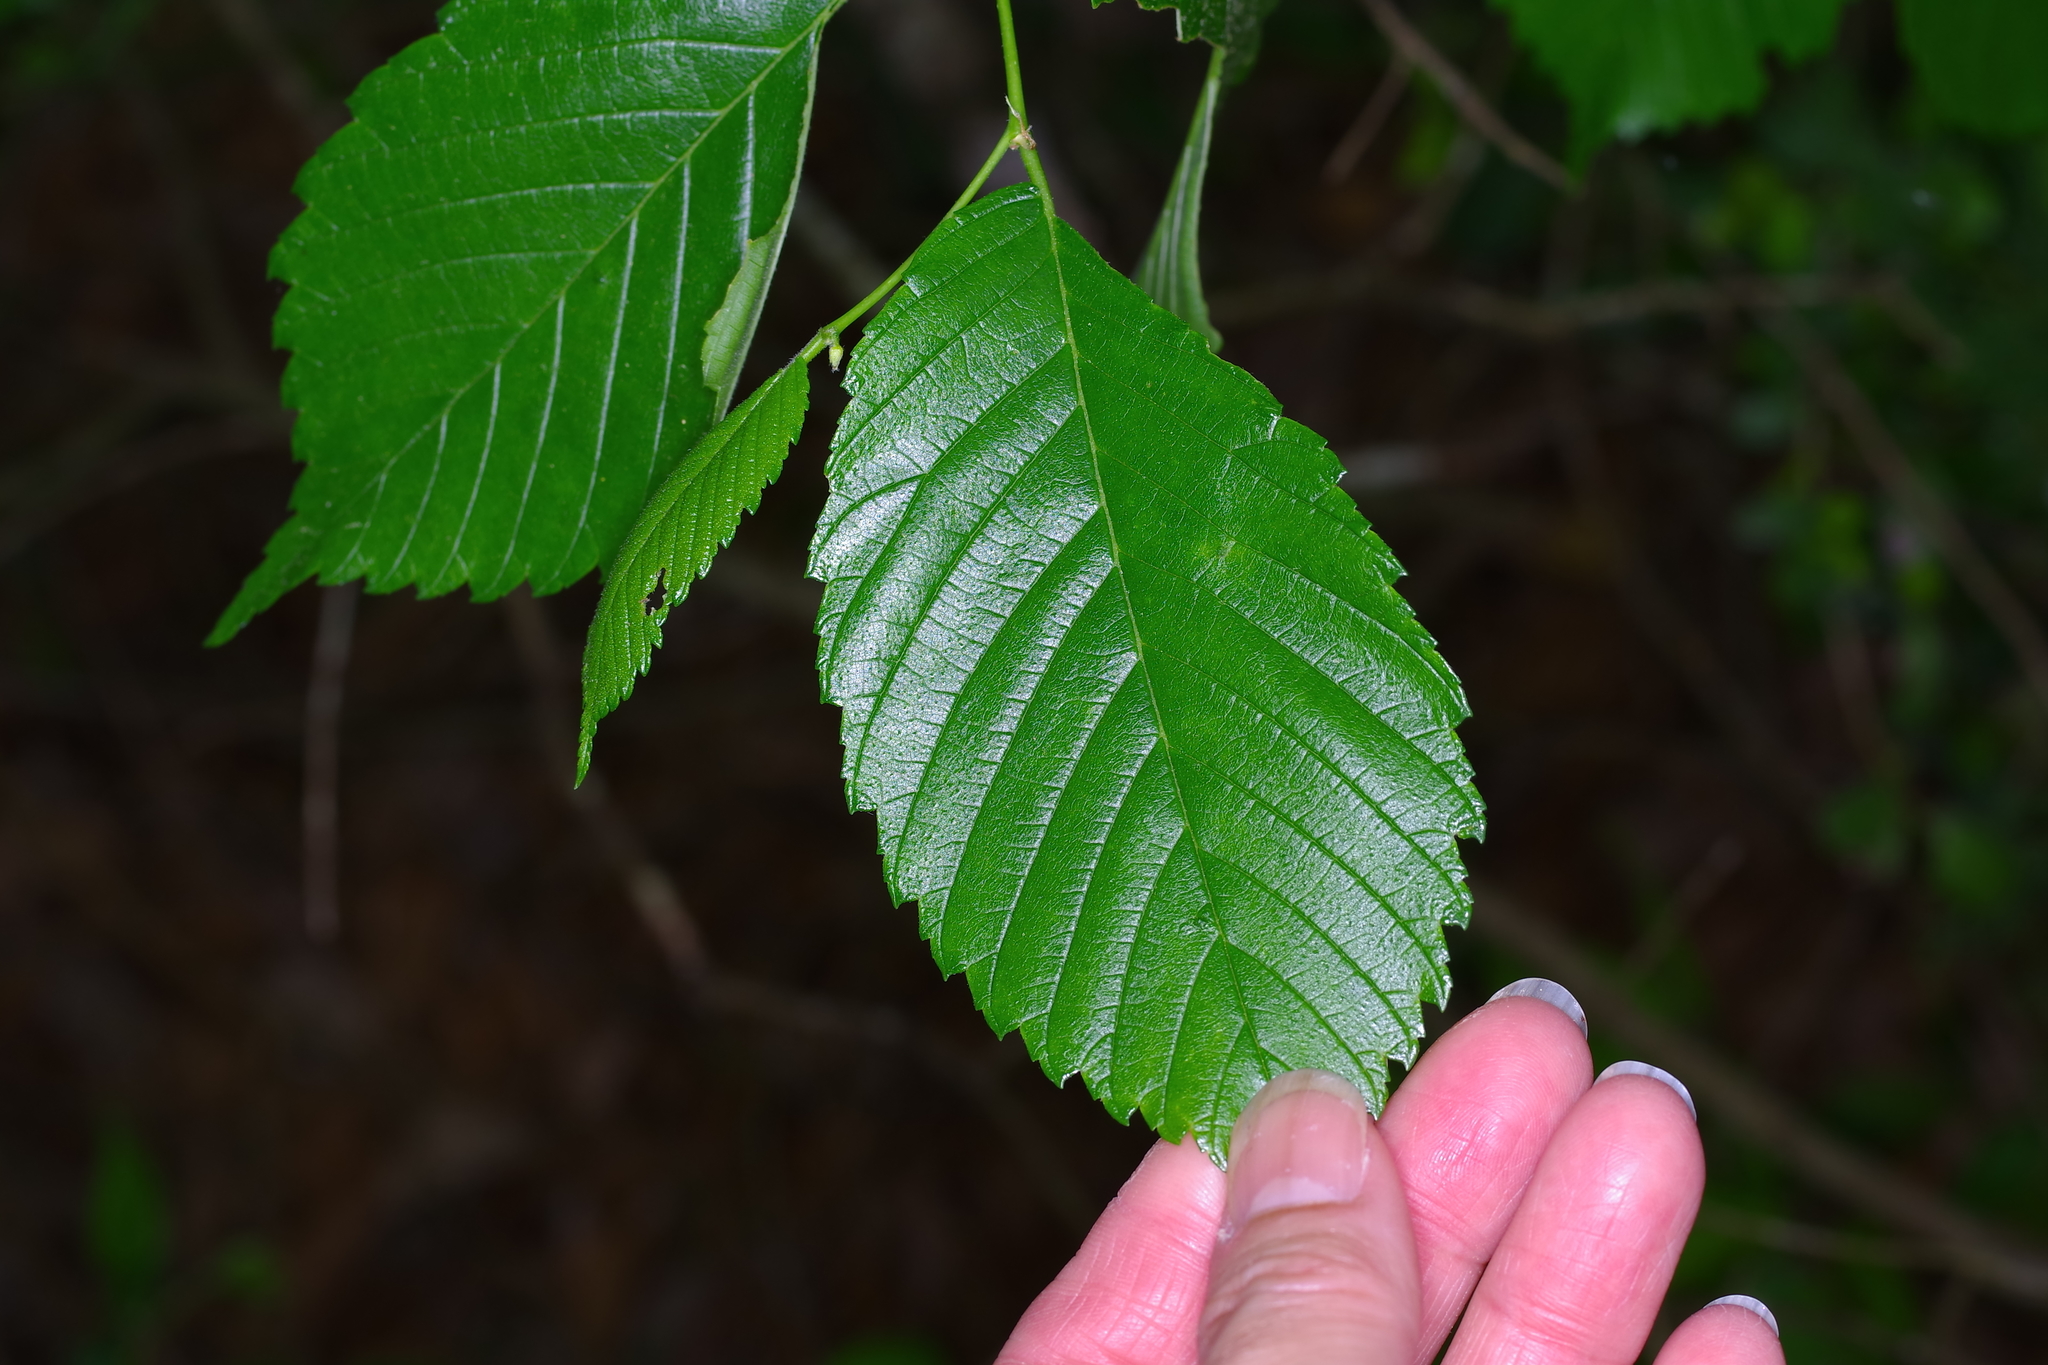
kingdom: Plantae
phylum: Tracheophyta
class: Magnoliopsida
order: Rosales
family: Ulmaceae
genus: Ulmus
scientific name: Ulmus americana
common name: American elm
